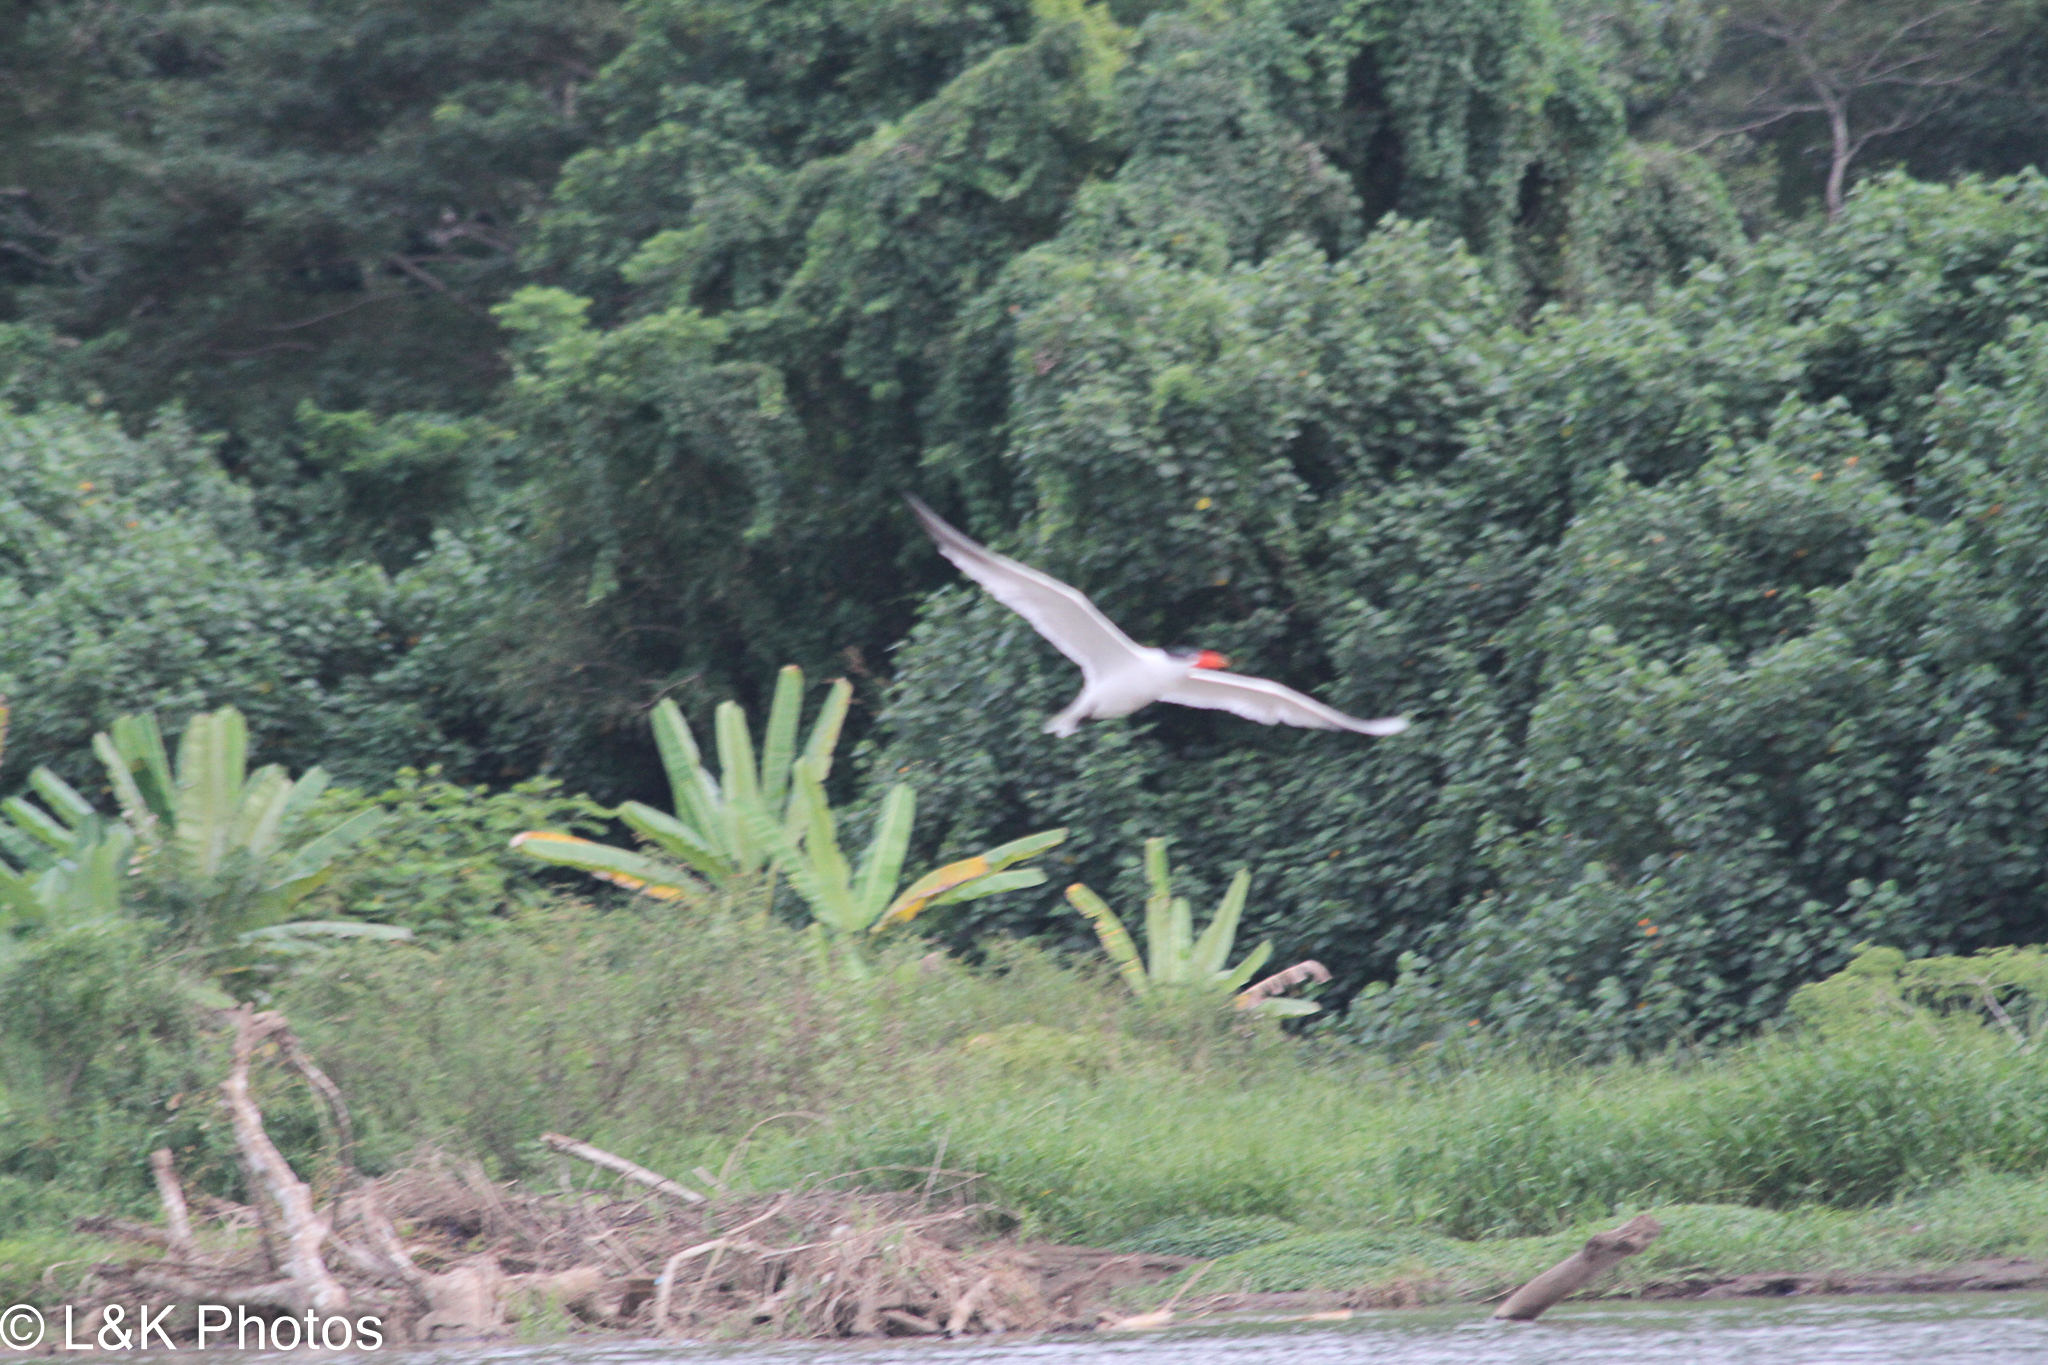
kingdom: Animalia
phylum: Chordata
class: Aves
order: Charadriiformes
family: Laridae
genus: Hydroprogne
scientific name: Hydroprogne caspia
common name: Caspian tern
